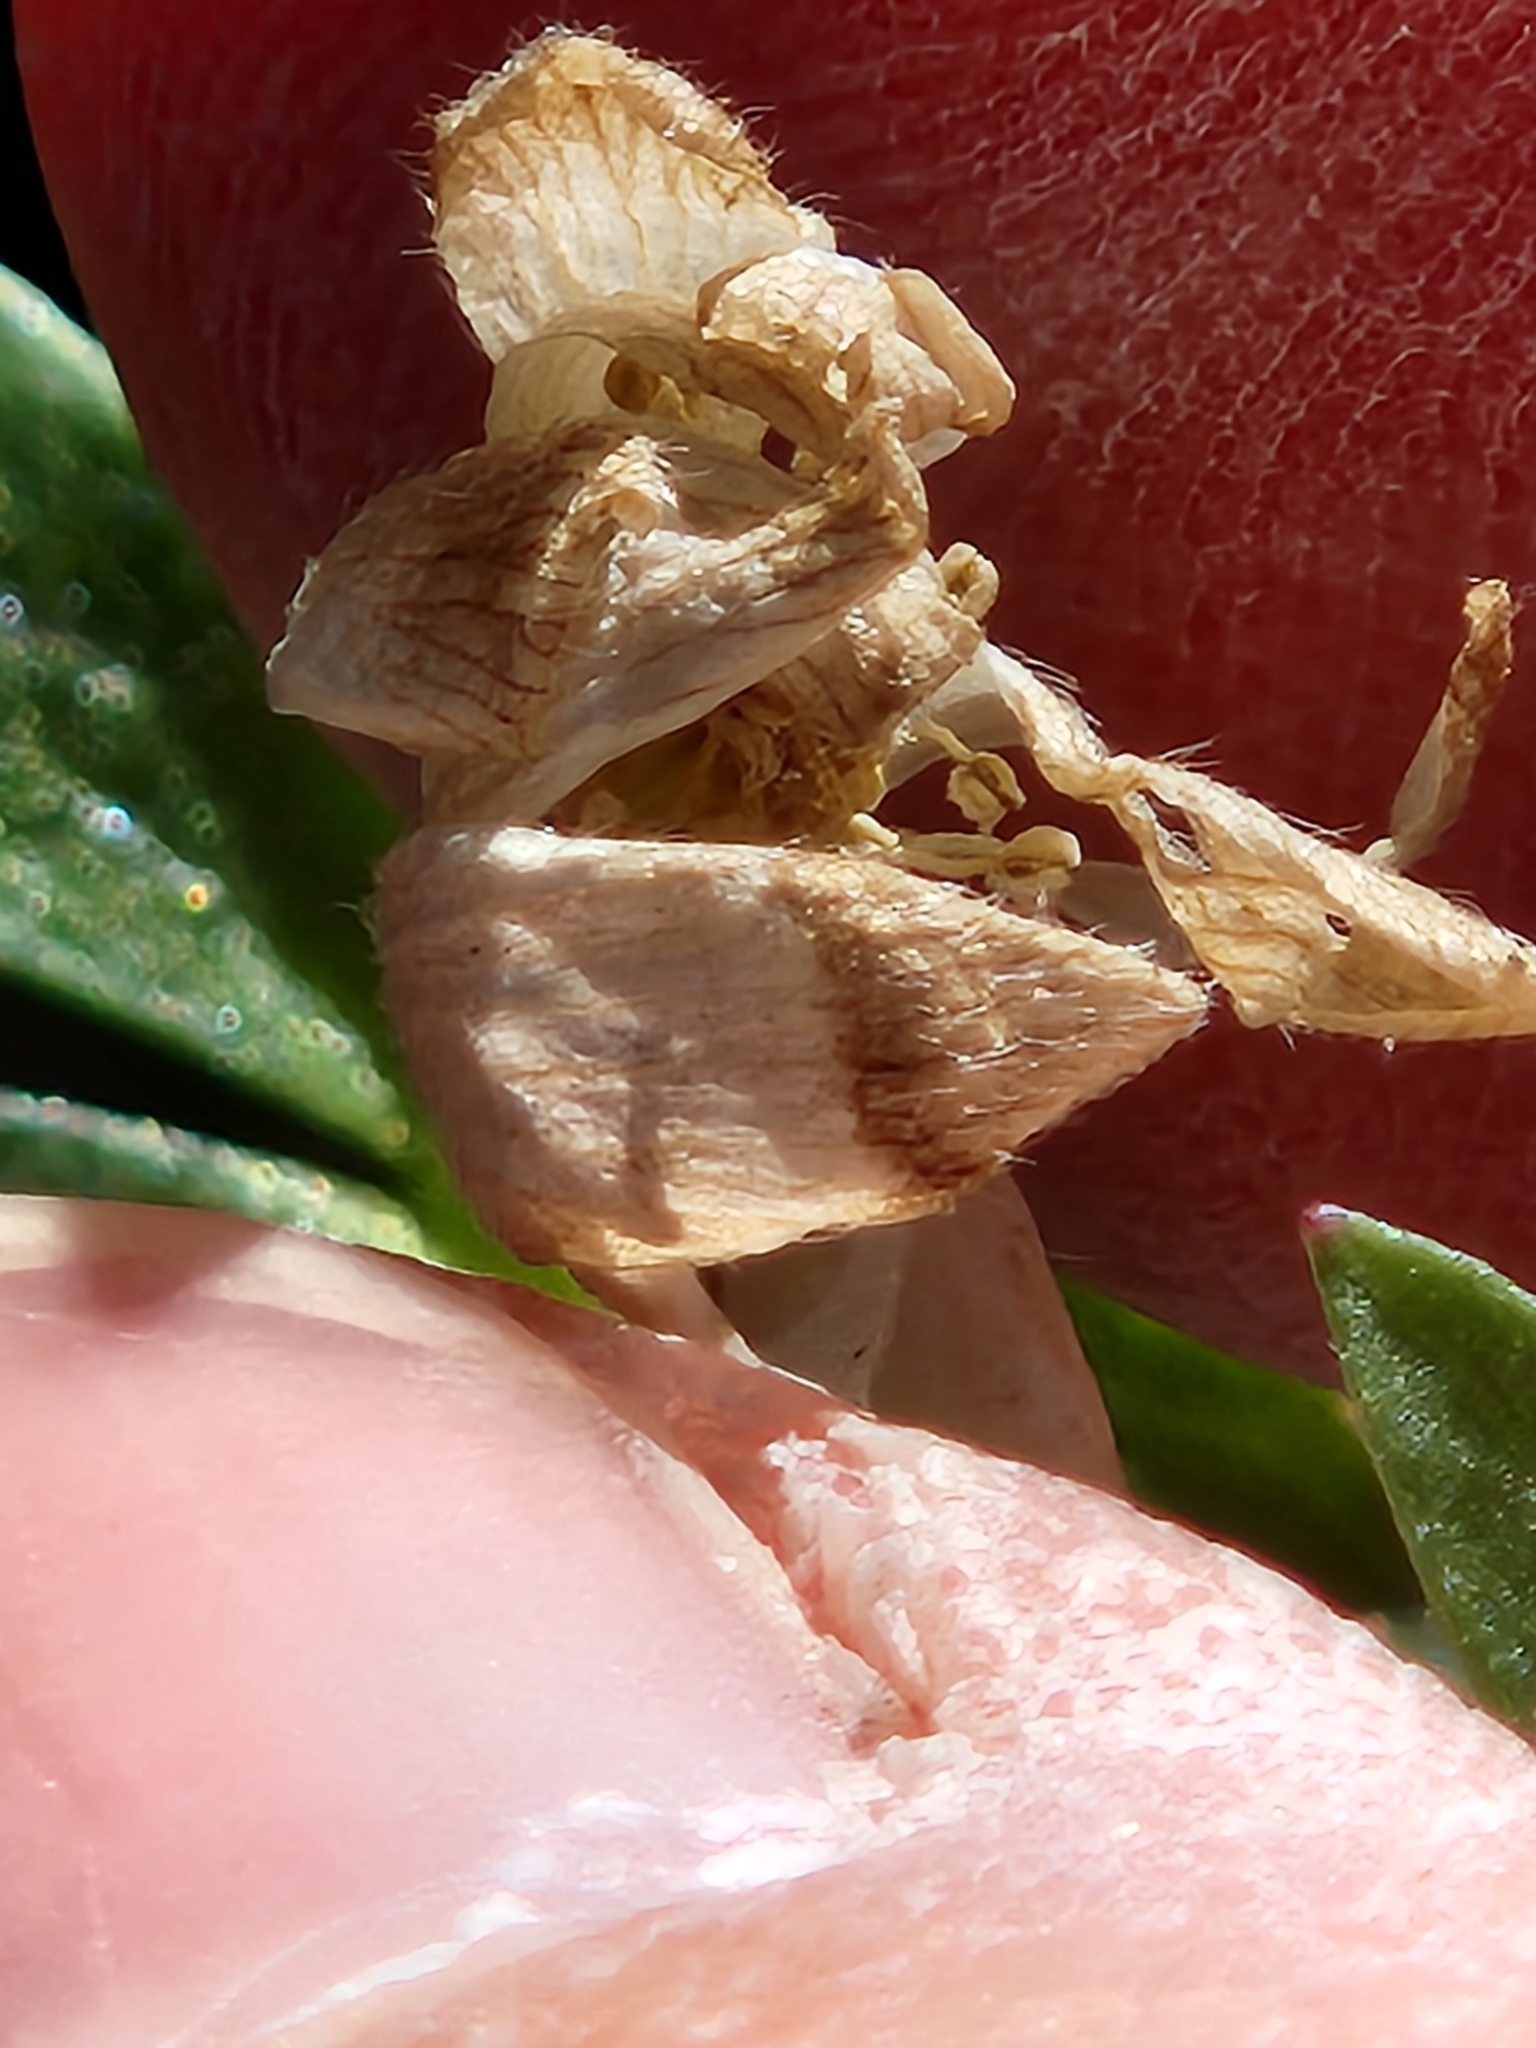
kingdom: Plantae
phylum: Tracheophyta
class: Magnoliopsida
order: Ranunculales
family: Ranunculaceae
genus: Anemone
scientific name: Anemone edwardsiana
